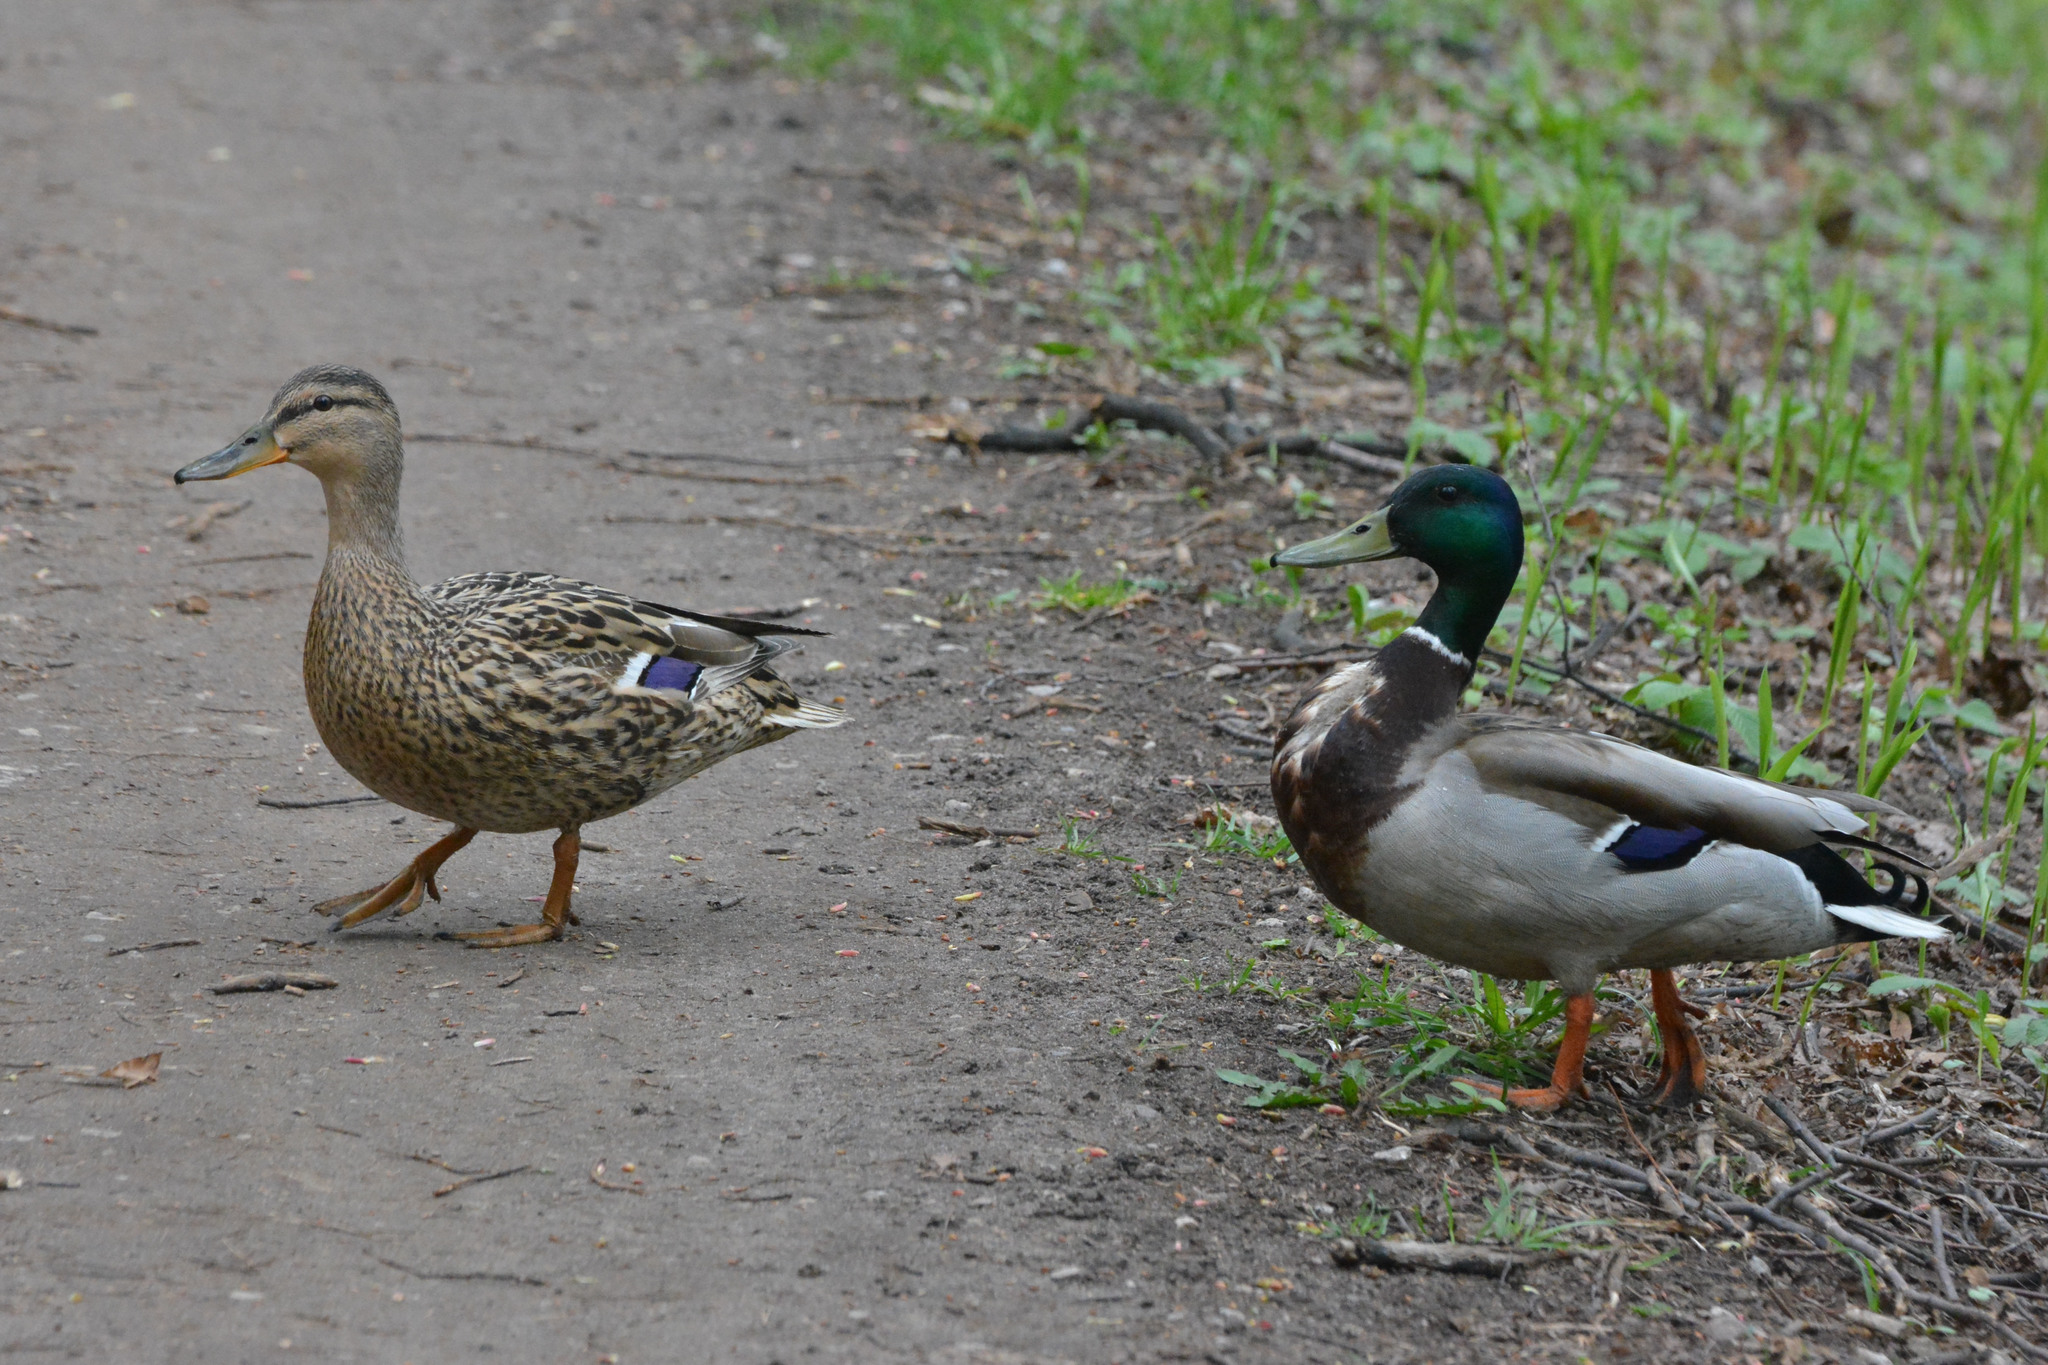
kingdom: Animalia
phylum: Chordata
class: Aves
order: Anseriformes
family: Anatidae
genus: Anas
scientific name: Anas platyrhynchos
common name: Mallard
